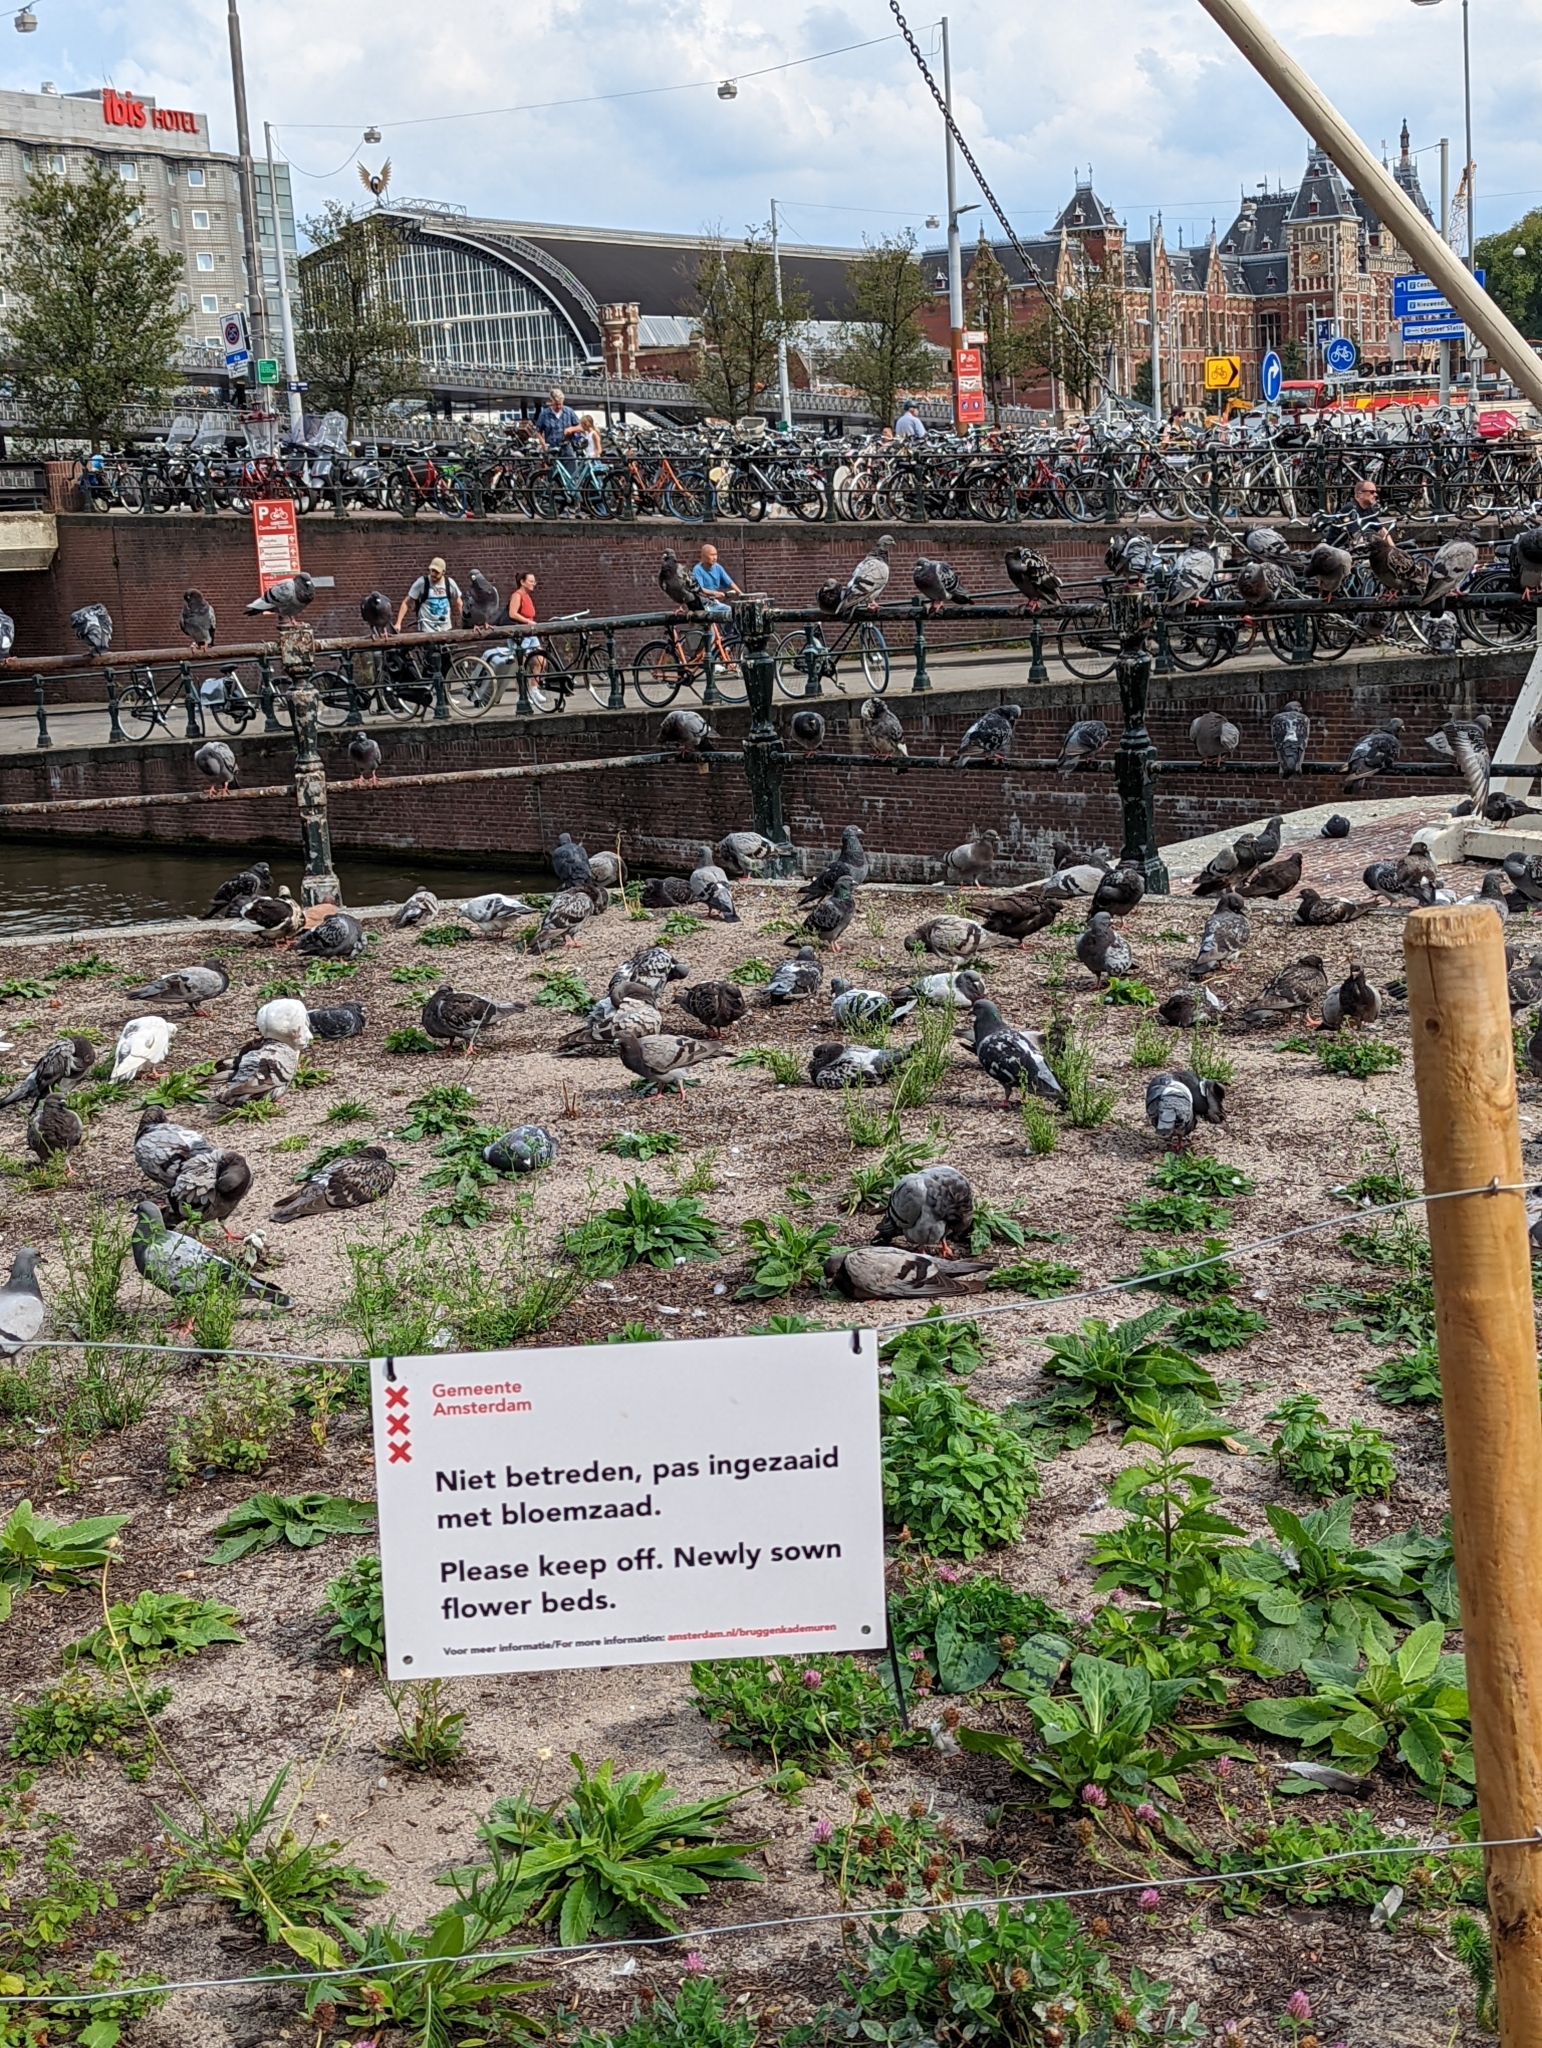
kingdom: Animalia
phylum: Chordata
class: Aves
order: Columbiformes
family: Columbidae
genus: Columba
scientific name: Columba livia
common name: Rock pigeon
